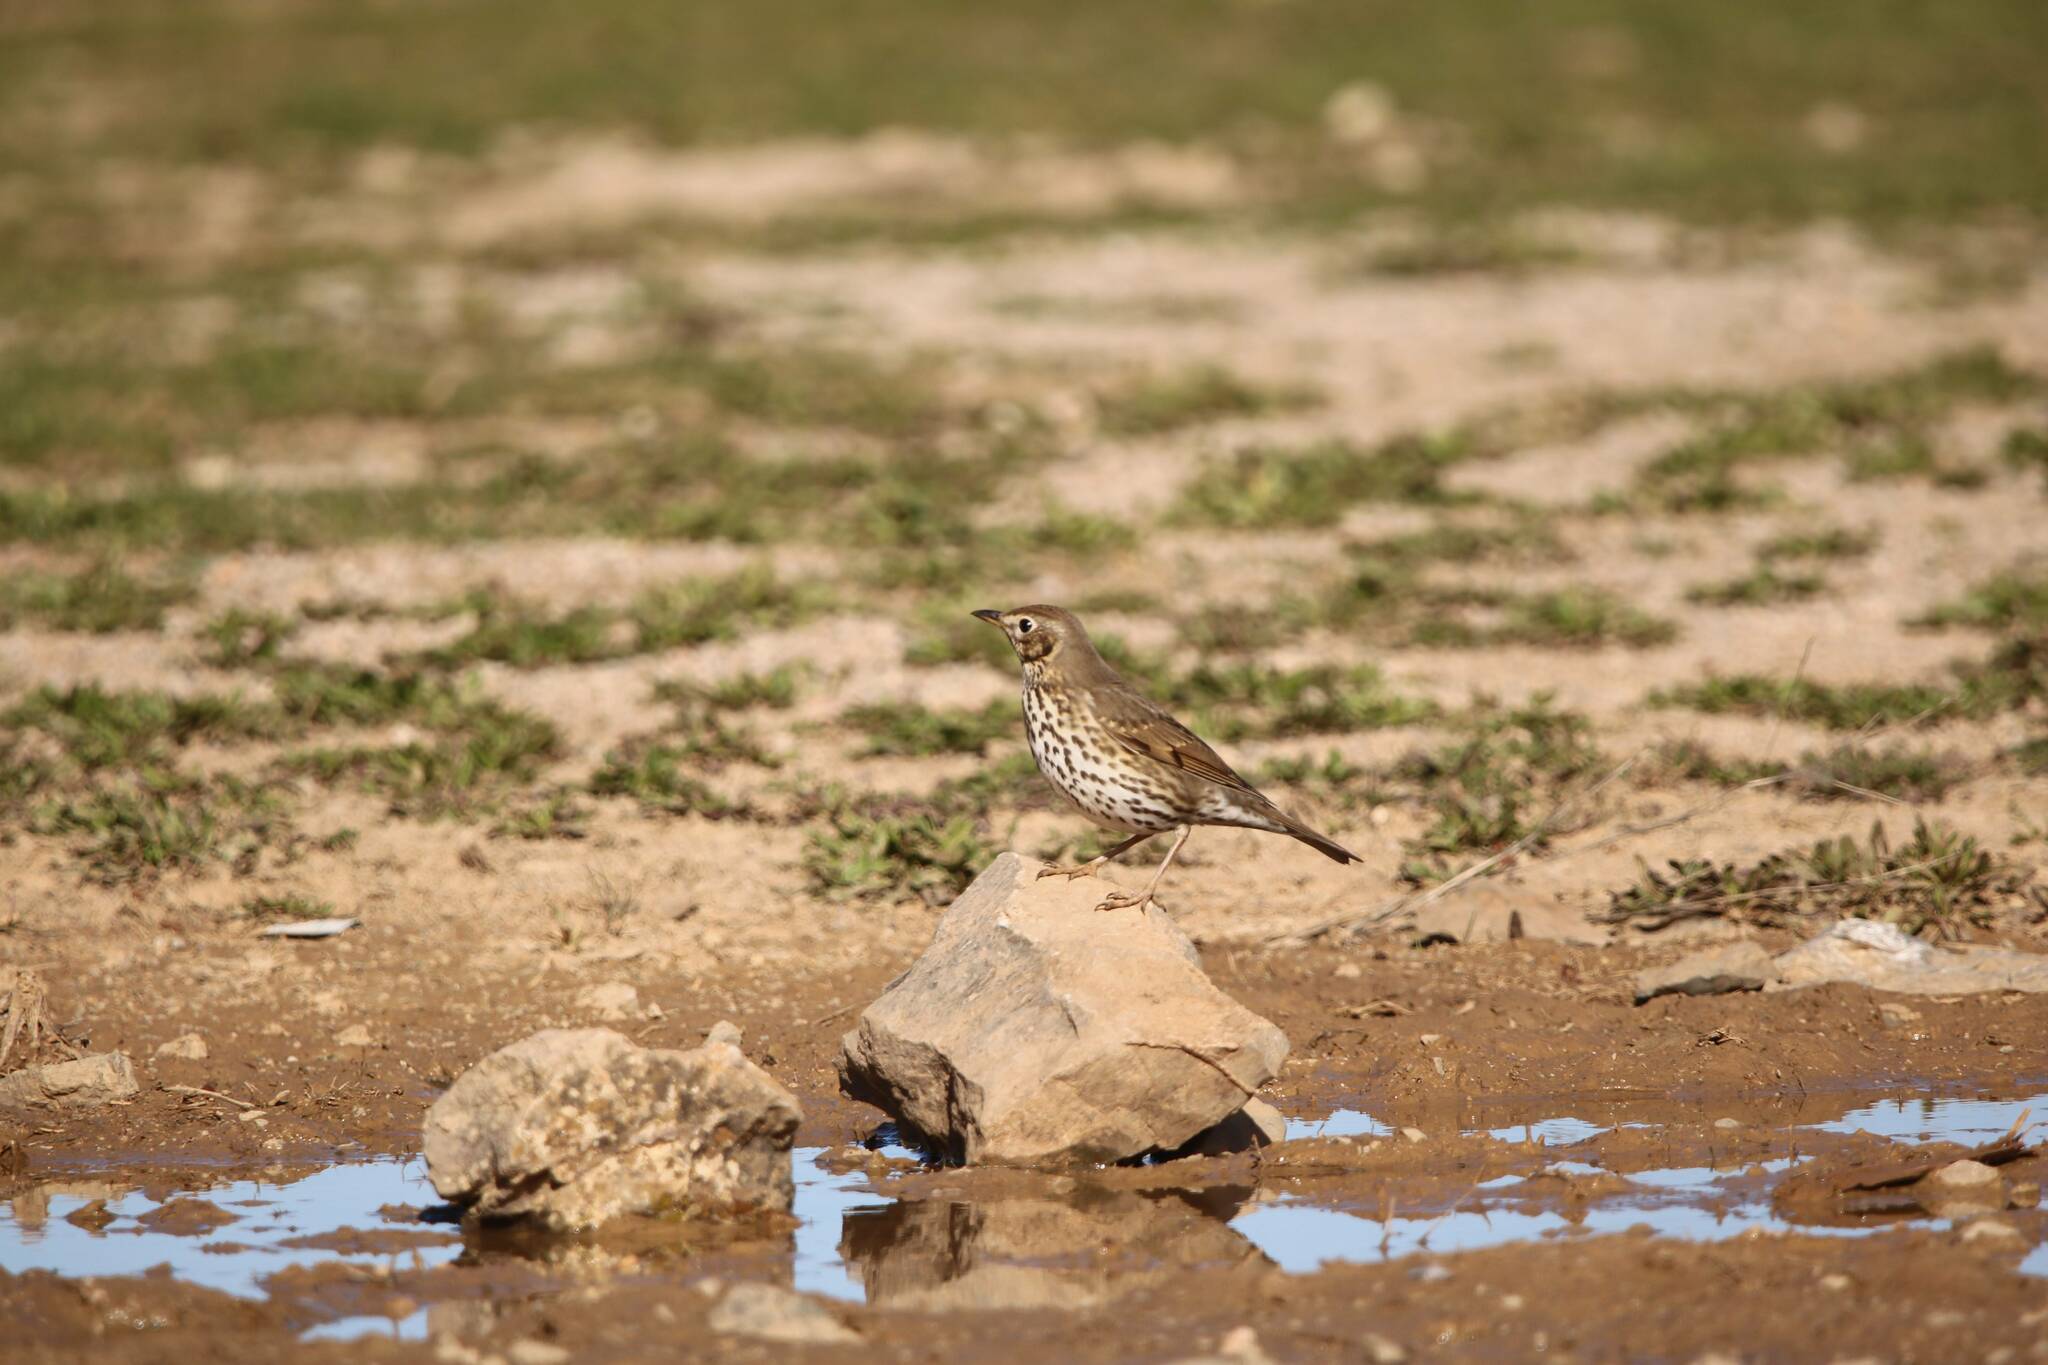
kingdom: Animalia
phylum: Chordata
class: Aves
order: Passeriformes
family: Turdidae
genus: Turdus
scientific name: Turdus philomelos
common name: Song thrush
